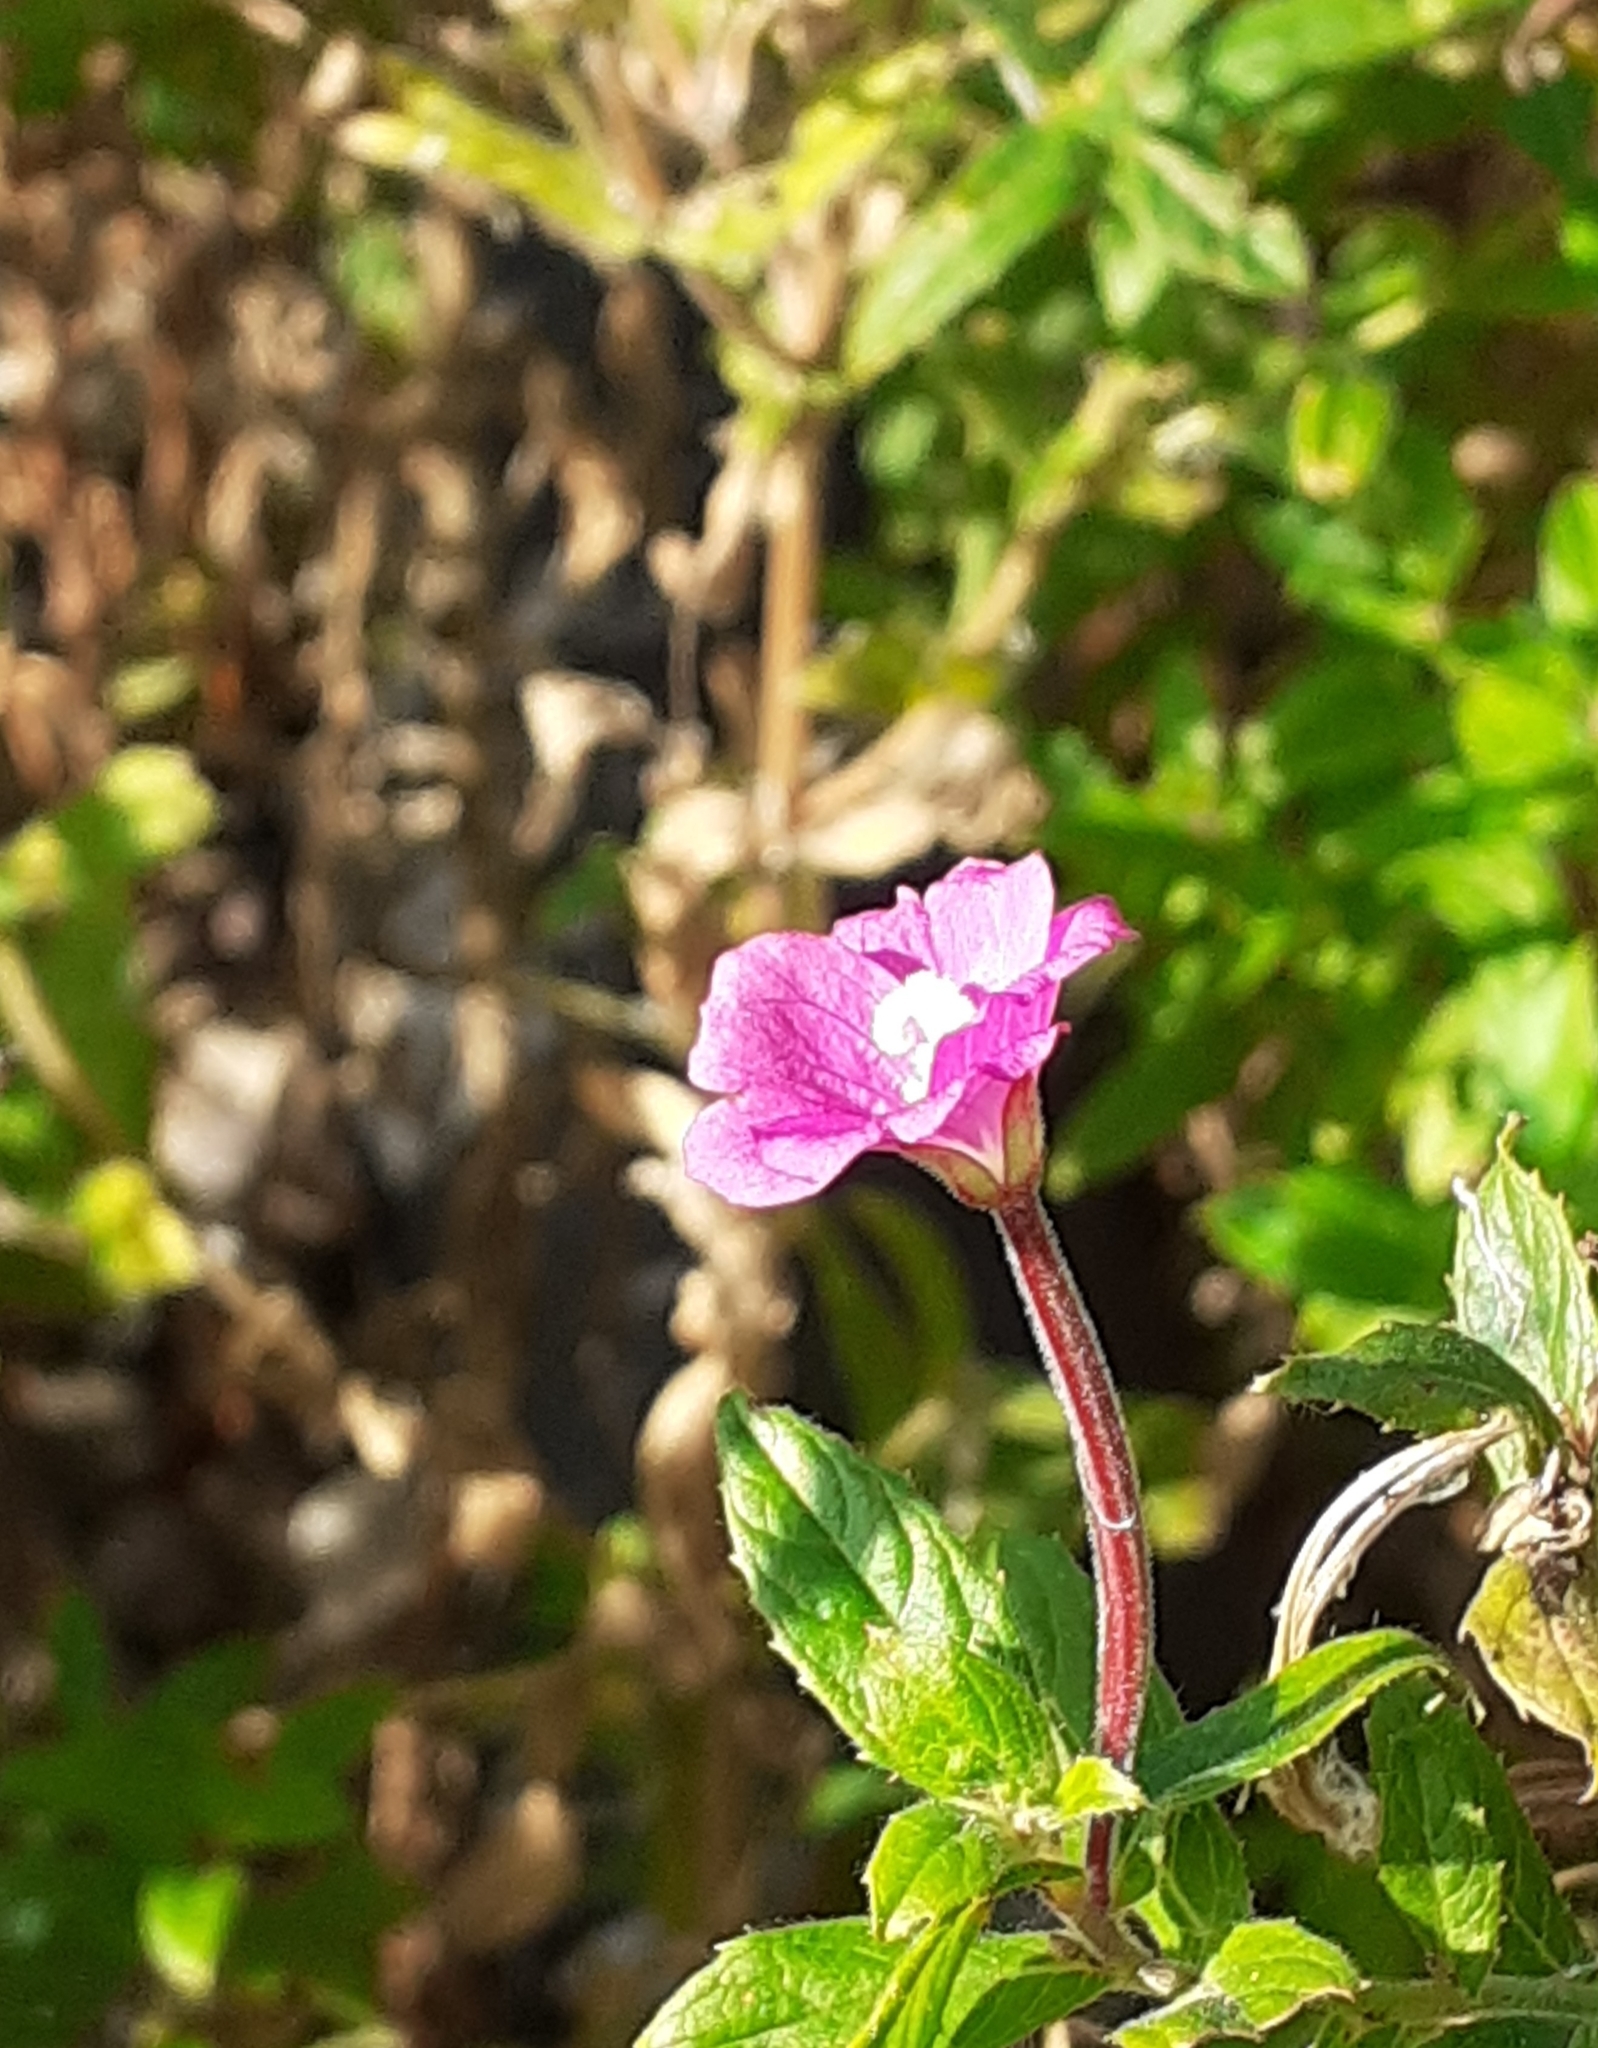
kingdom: Plantae
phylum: Tracheophyta
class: Magnoliopsida
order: Myrtales
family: Onagraceae
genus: Epilobium
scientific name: Epilobium hirsutum
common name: Great willowherb
